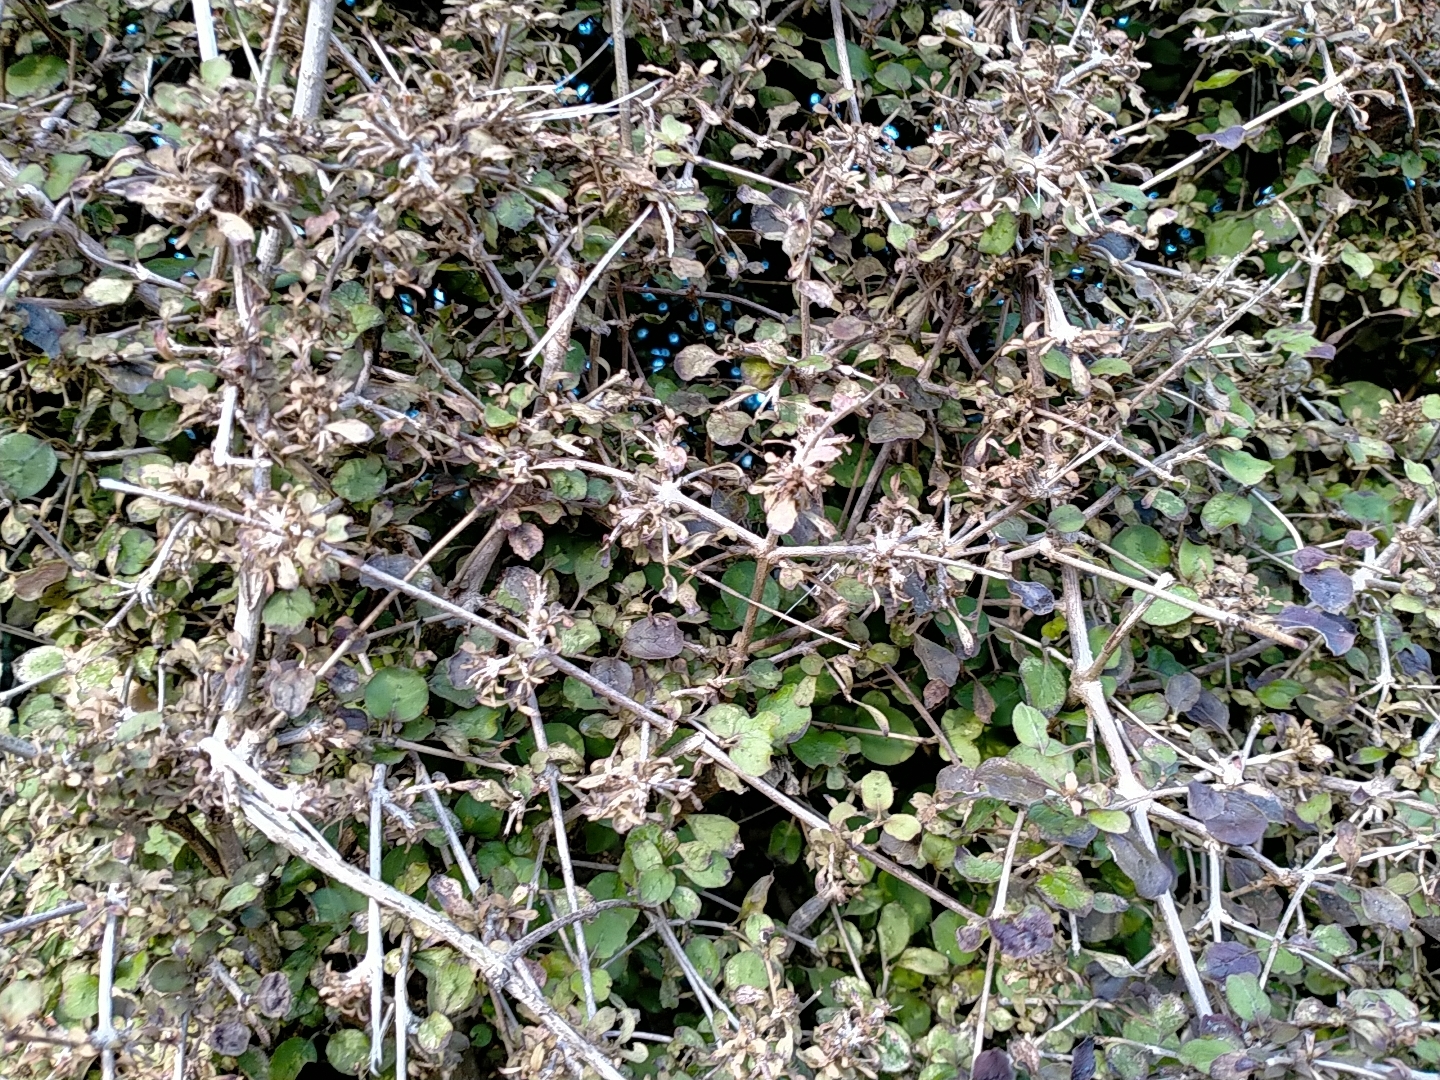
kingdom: Plantae
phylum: Tracheophyta
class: Magnoliopsida
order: Gentianales
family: Rubiaceae
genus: Coprosma
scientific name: Coprosma rotundifolia
